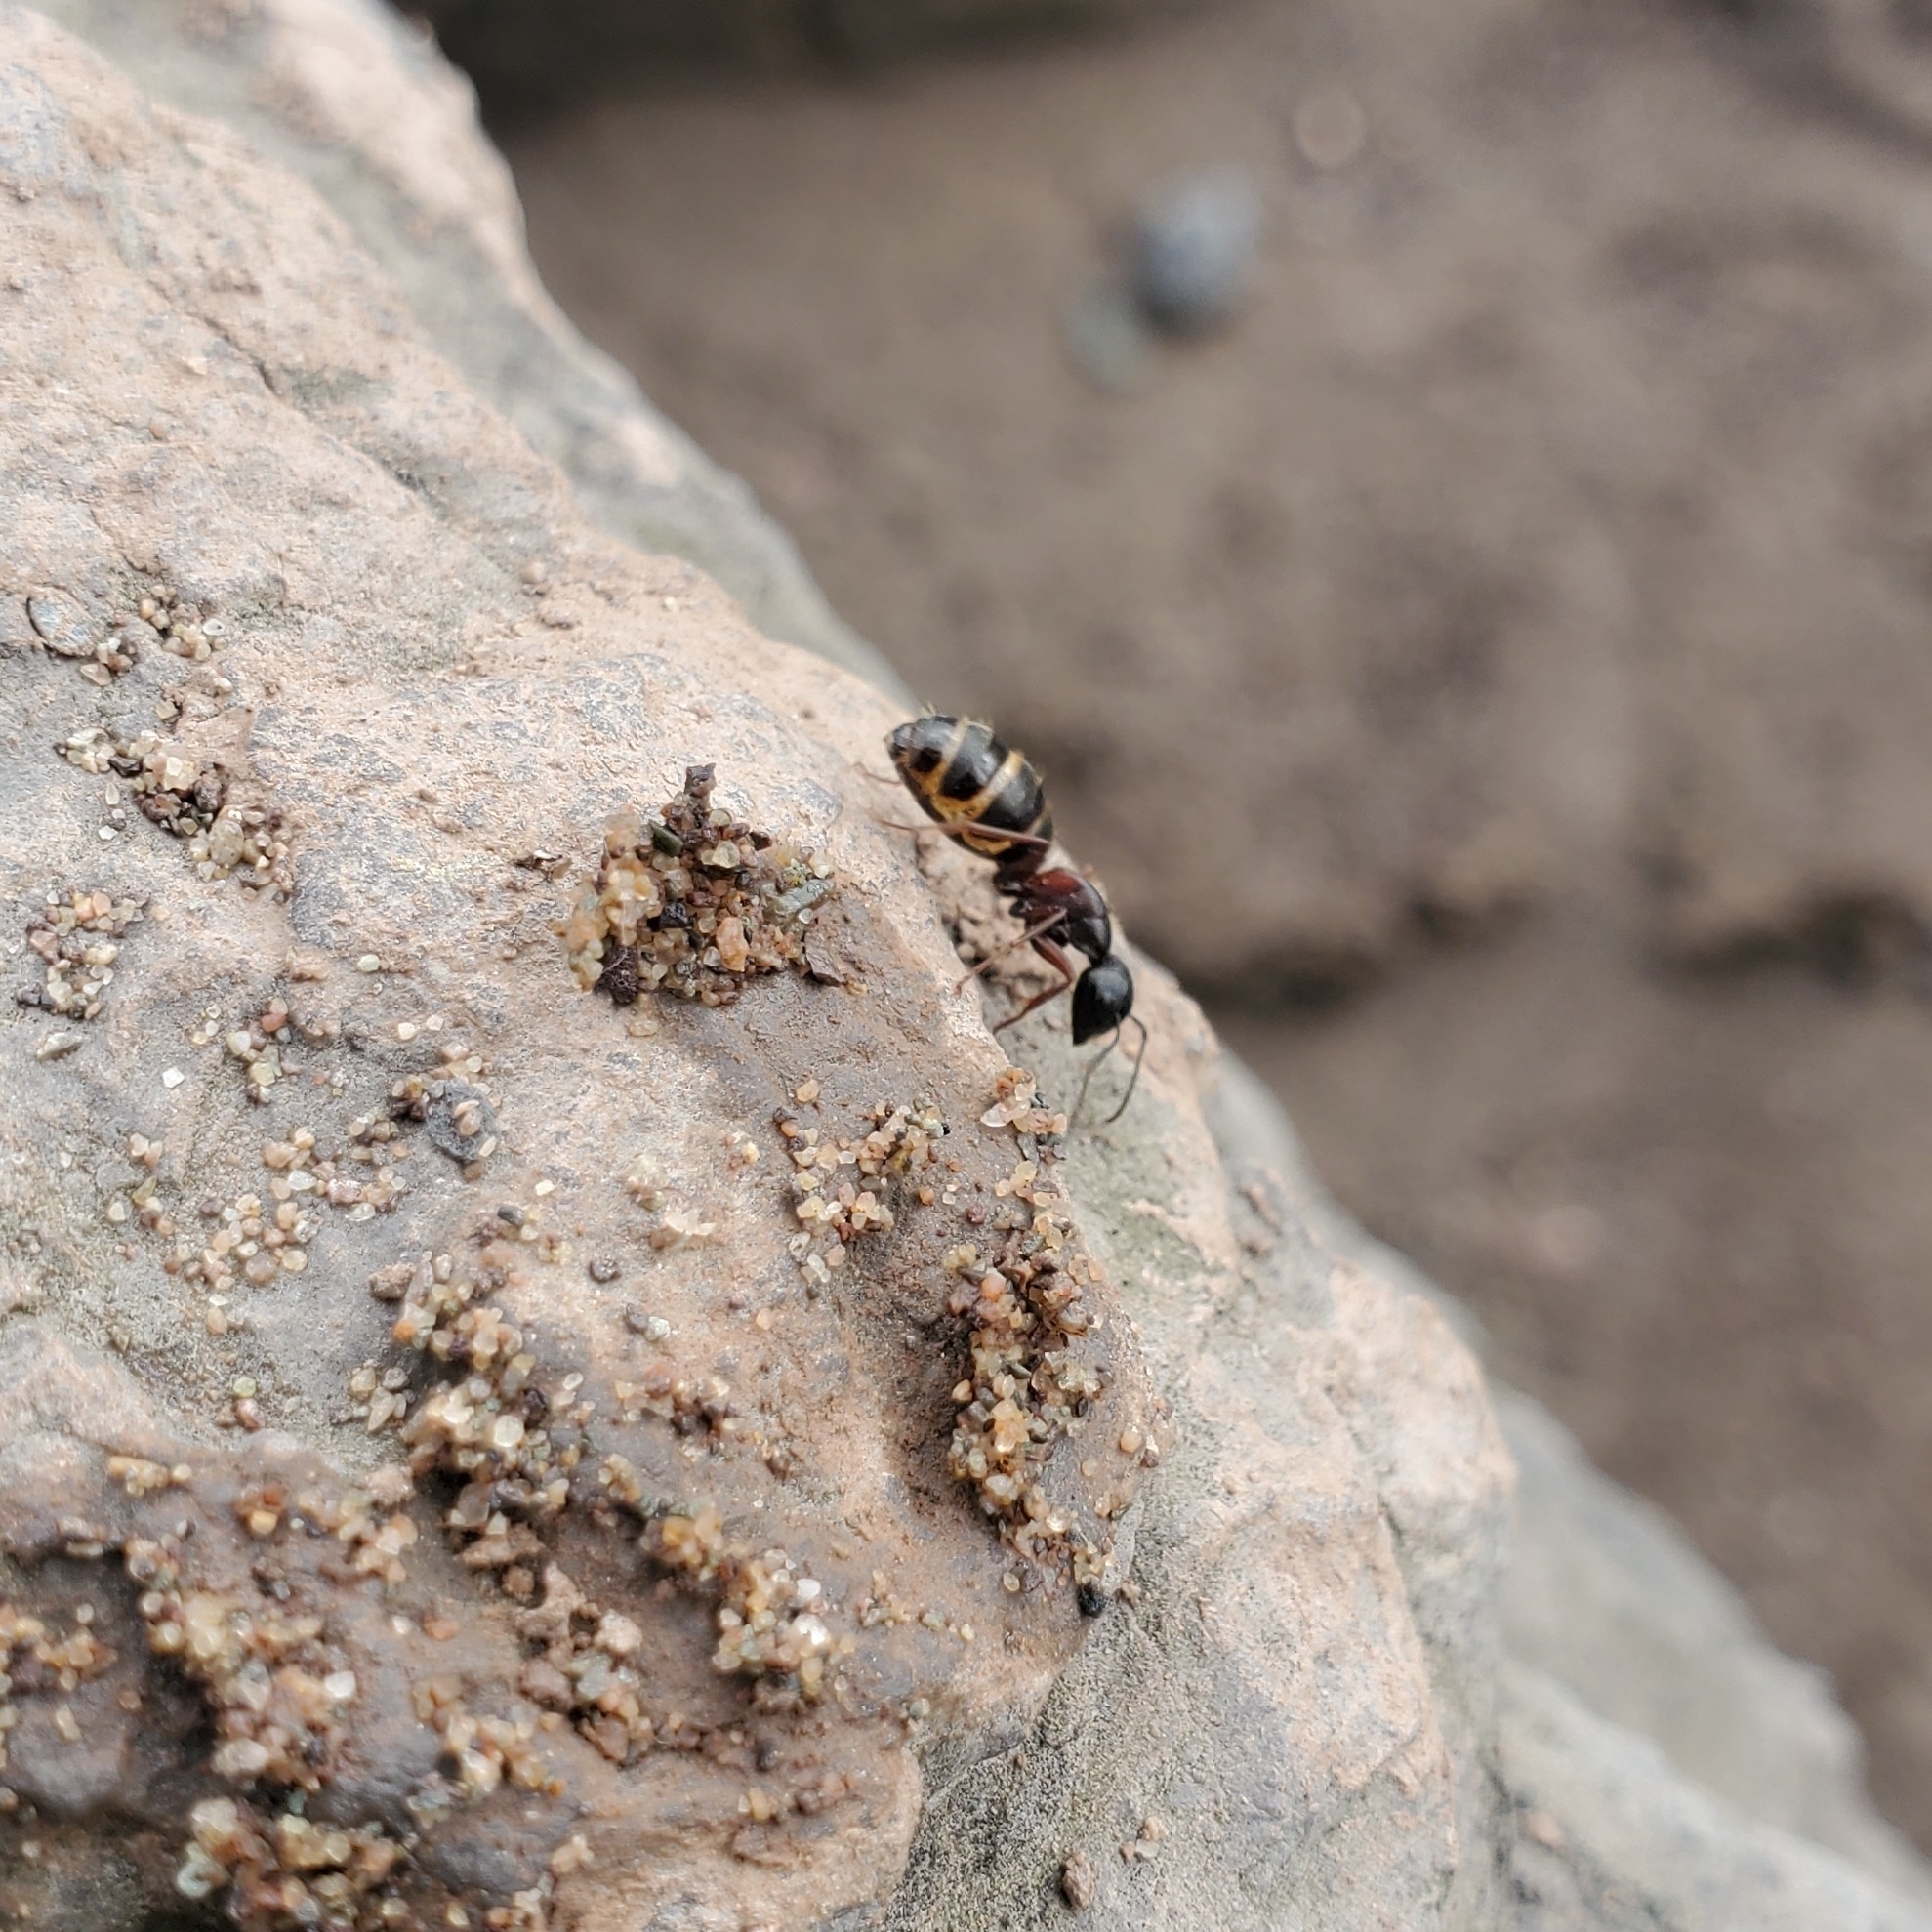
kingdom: Animalia
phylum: Arthropoda
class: Insecta
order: Hymenoptera
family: Formicidae
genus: Camponotus
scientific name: Camponotus herculeanus
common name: Hercules ant
